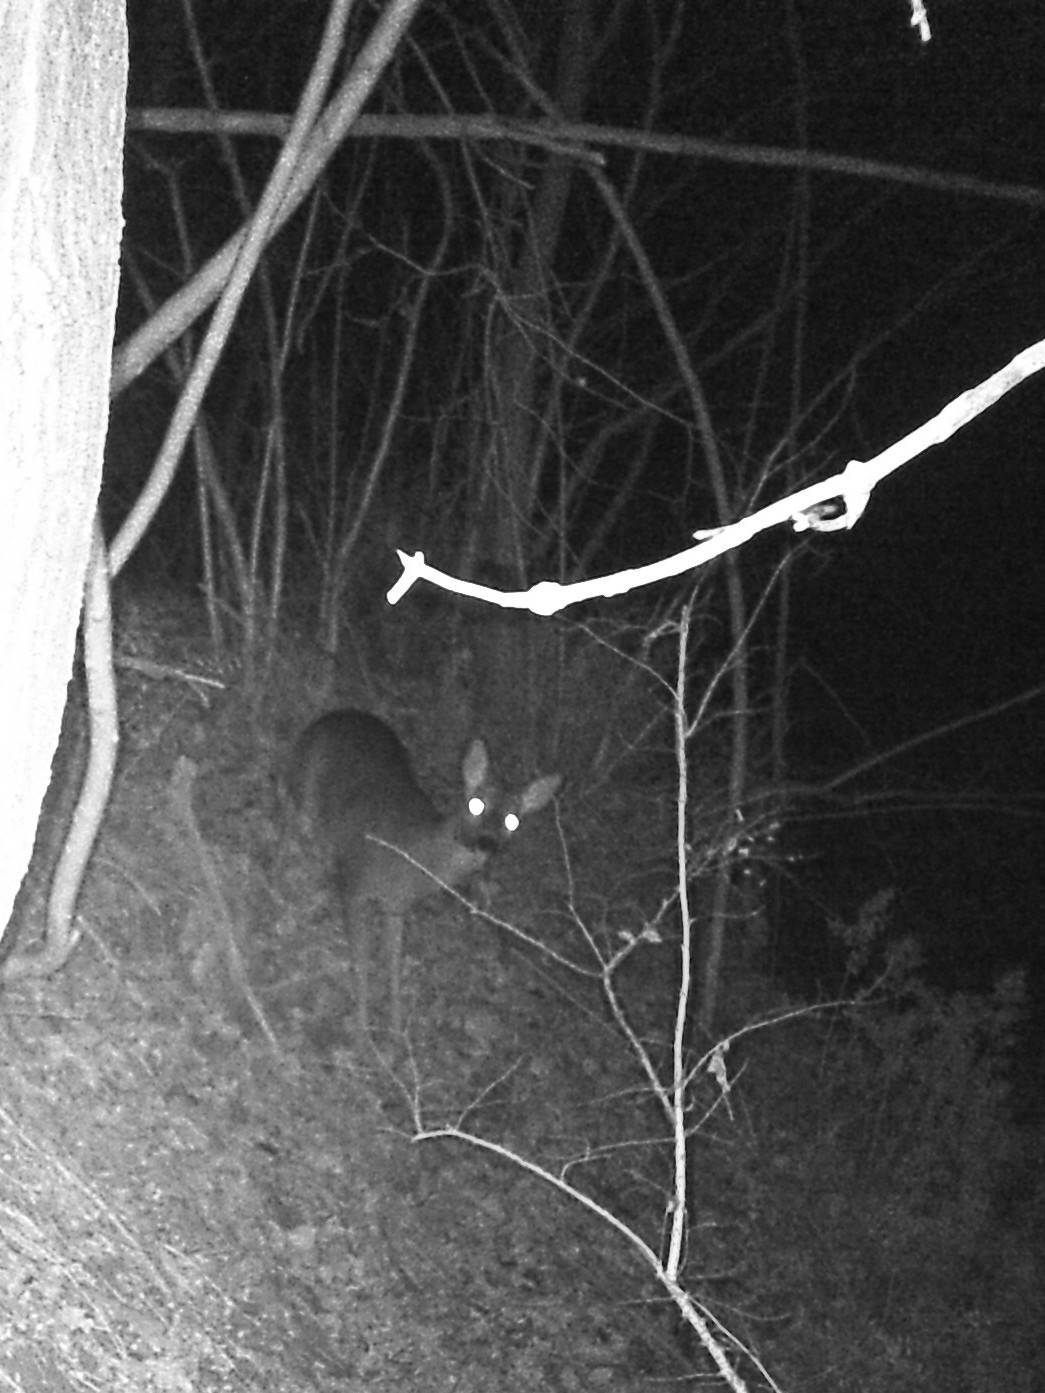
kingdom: Animalia
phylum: Chordata
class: Mammalia
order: Artiodactyla
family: Cervidae
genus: Capreolus
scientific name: Capreolus capreolus
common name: Western roe deer
